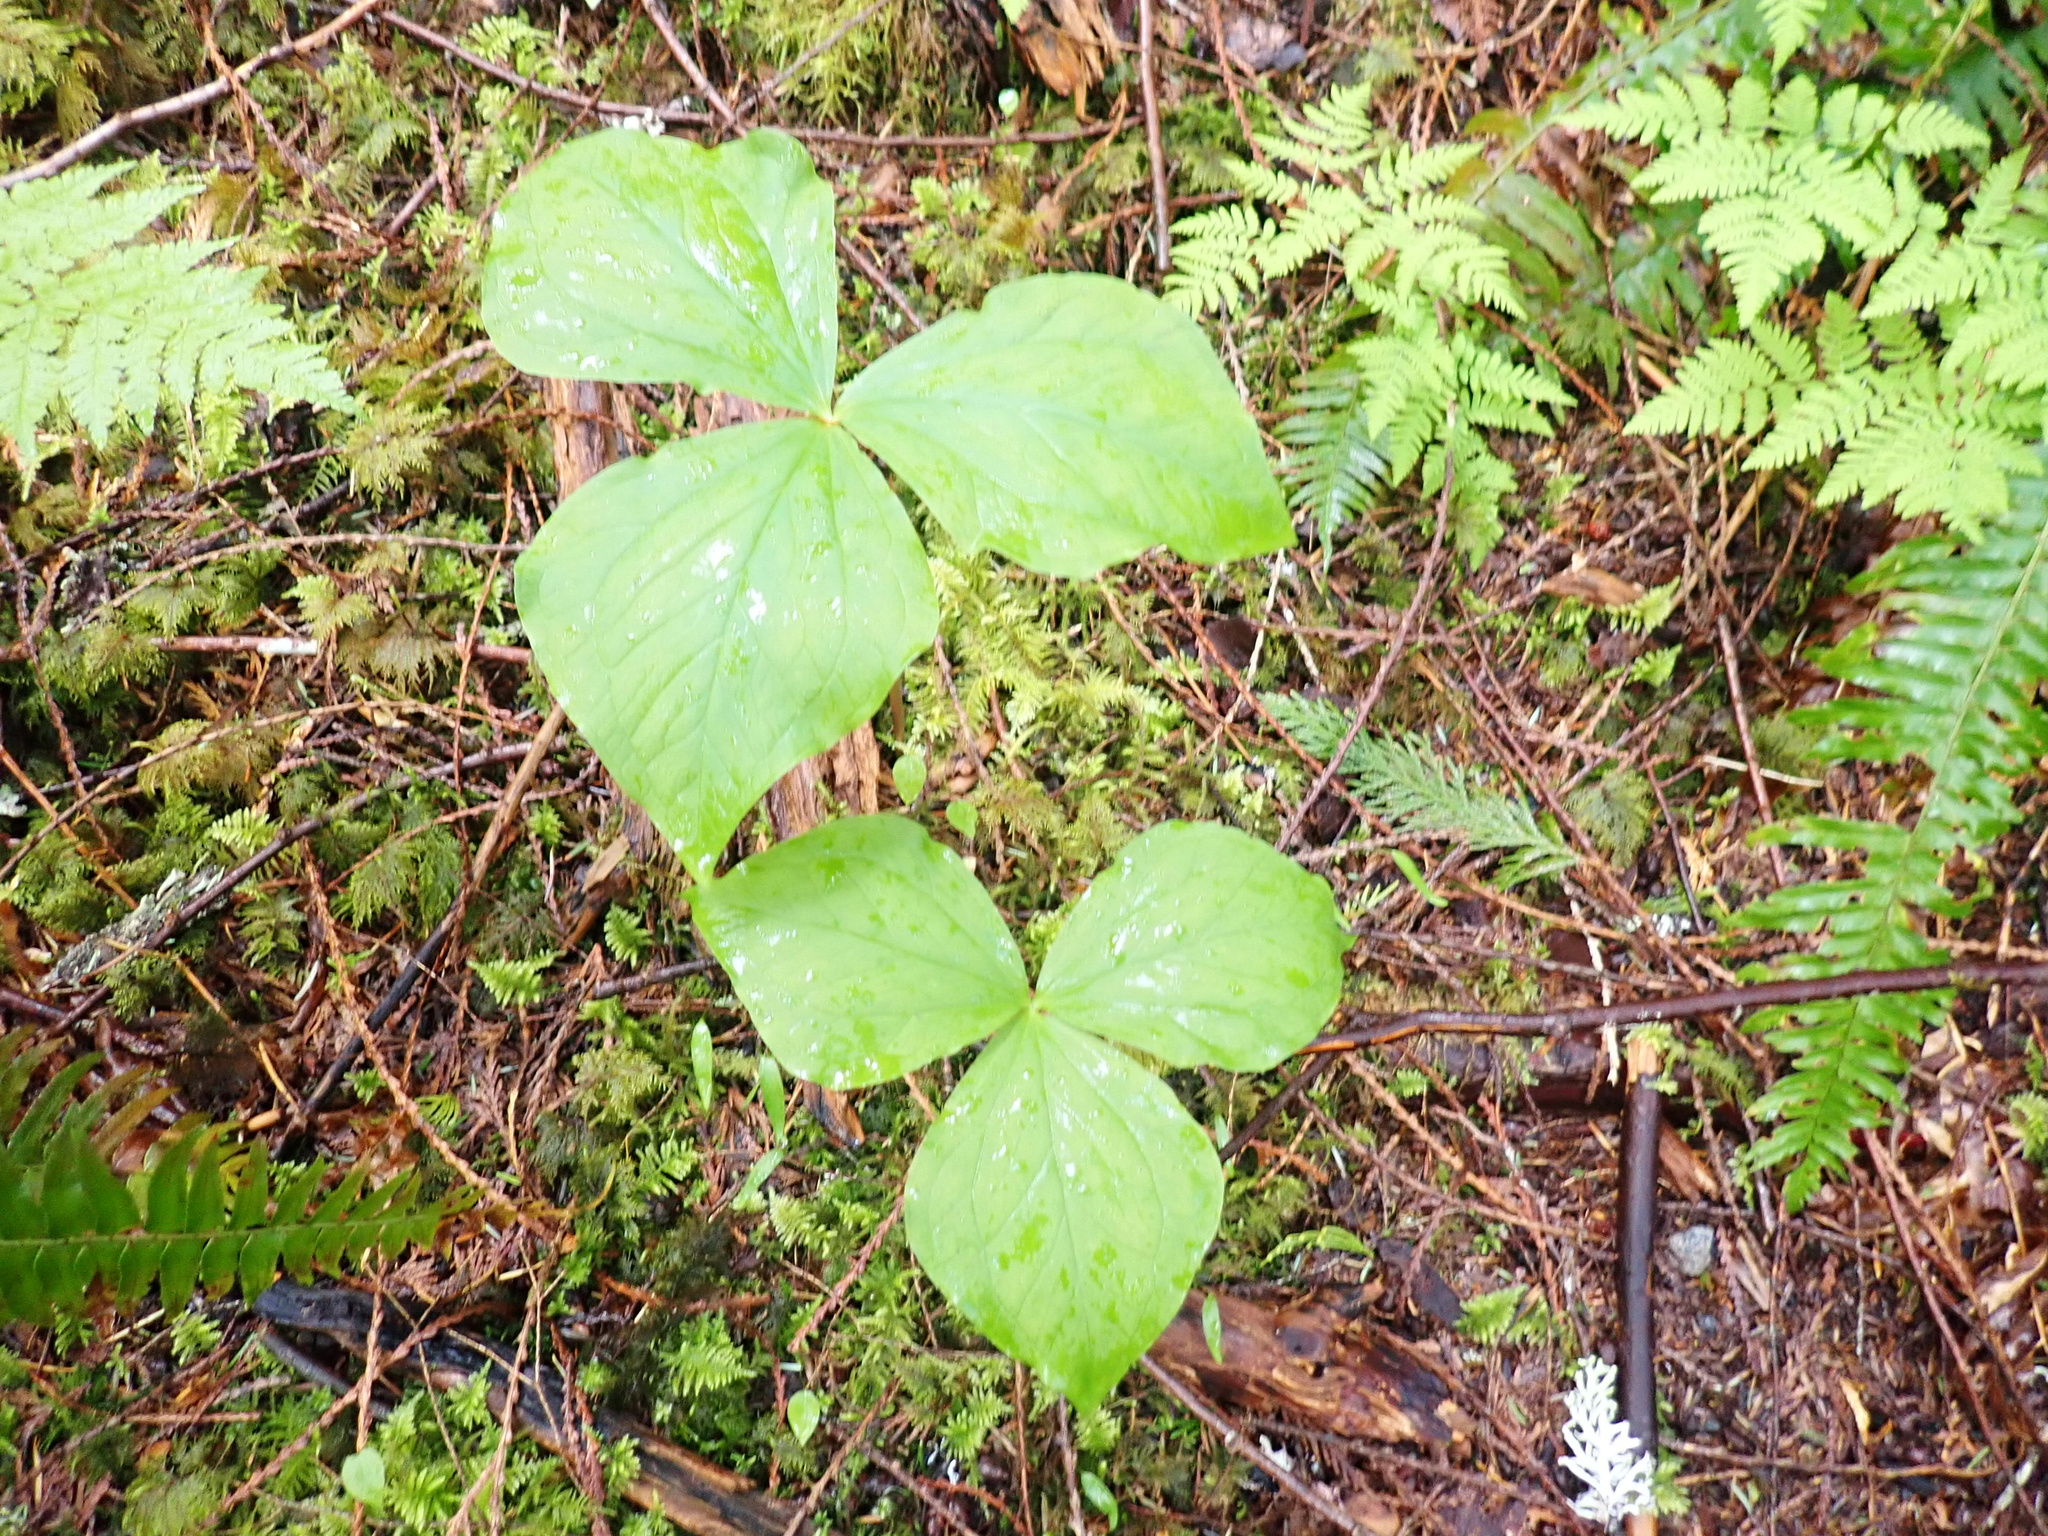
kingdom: Plantae
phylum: Tracheophyta
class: Liliopsida
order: Liliales
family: Melanthiaceae
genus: Trillium
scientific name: Trillium ovatum
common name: Pacific trillium
